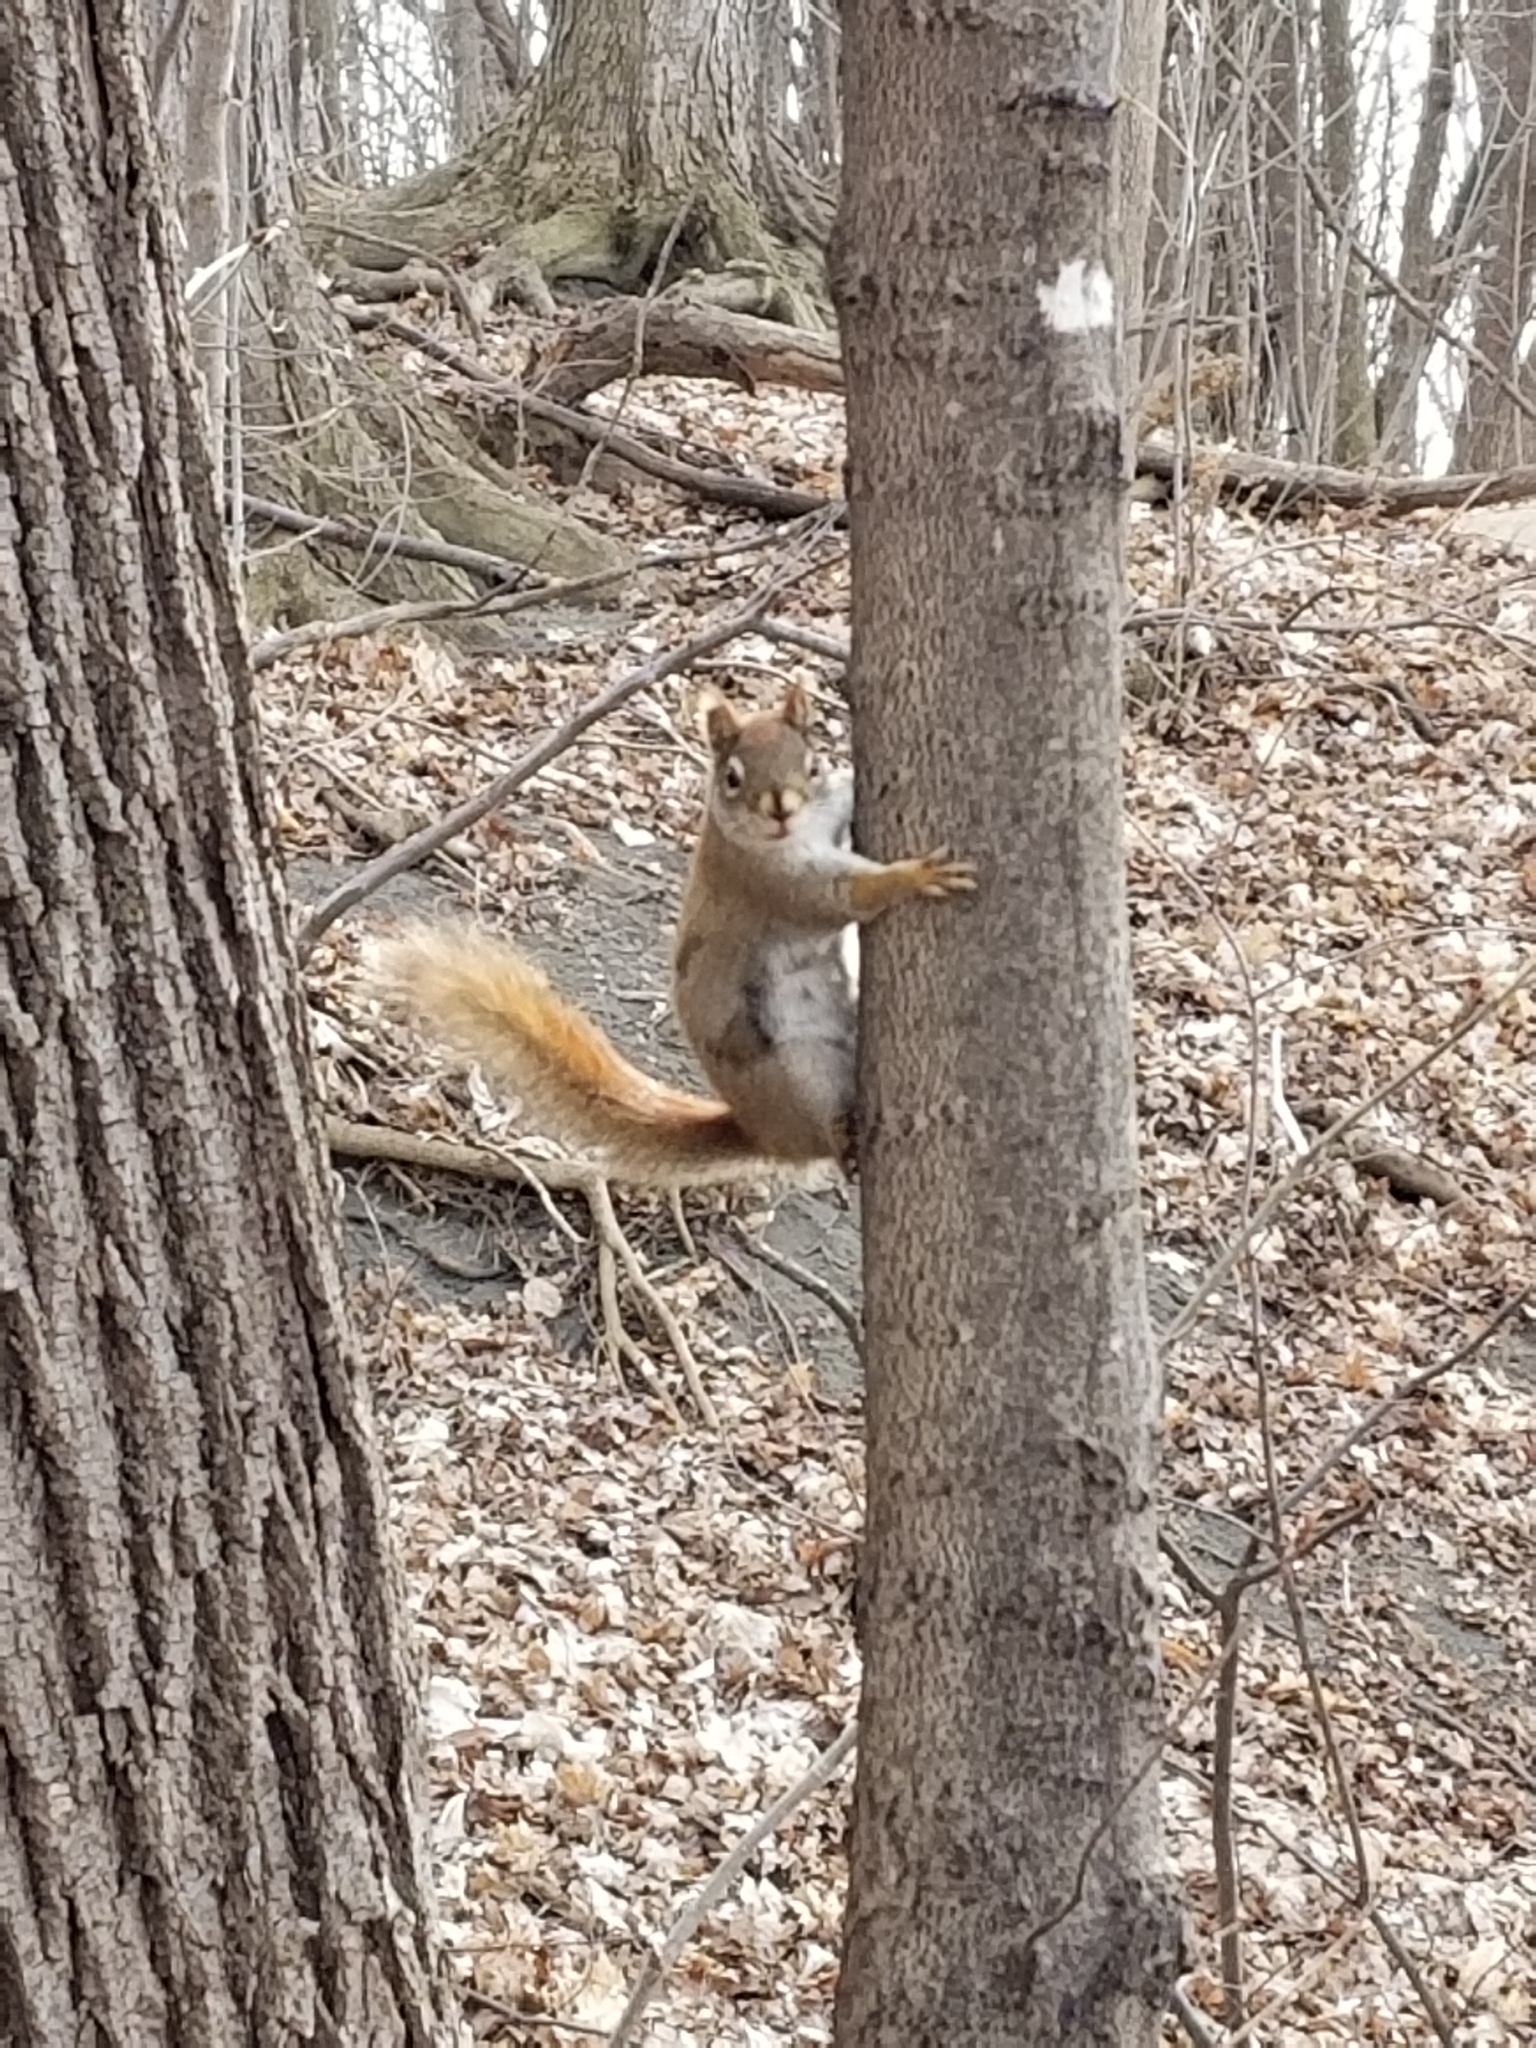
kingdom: Animalia
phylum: Chordata
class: Mammalia
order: Rodentia
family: Sciuridae
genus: Tamiasciurus
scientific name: Tamiasciurus hudsonicus
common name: Red squirrel
